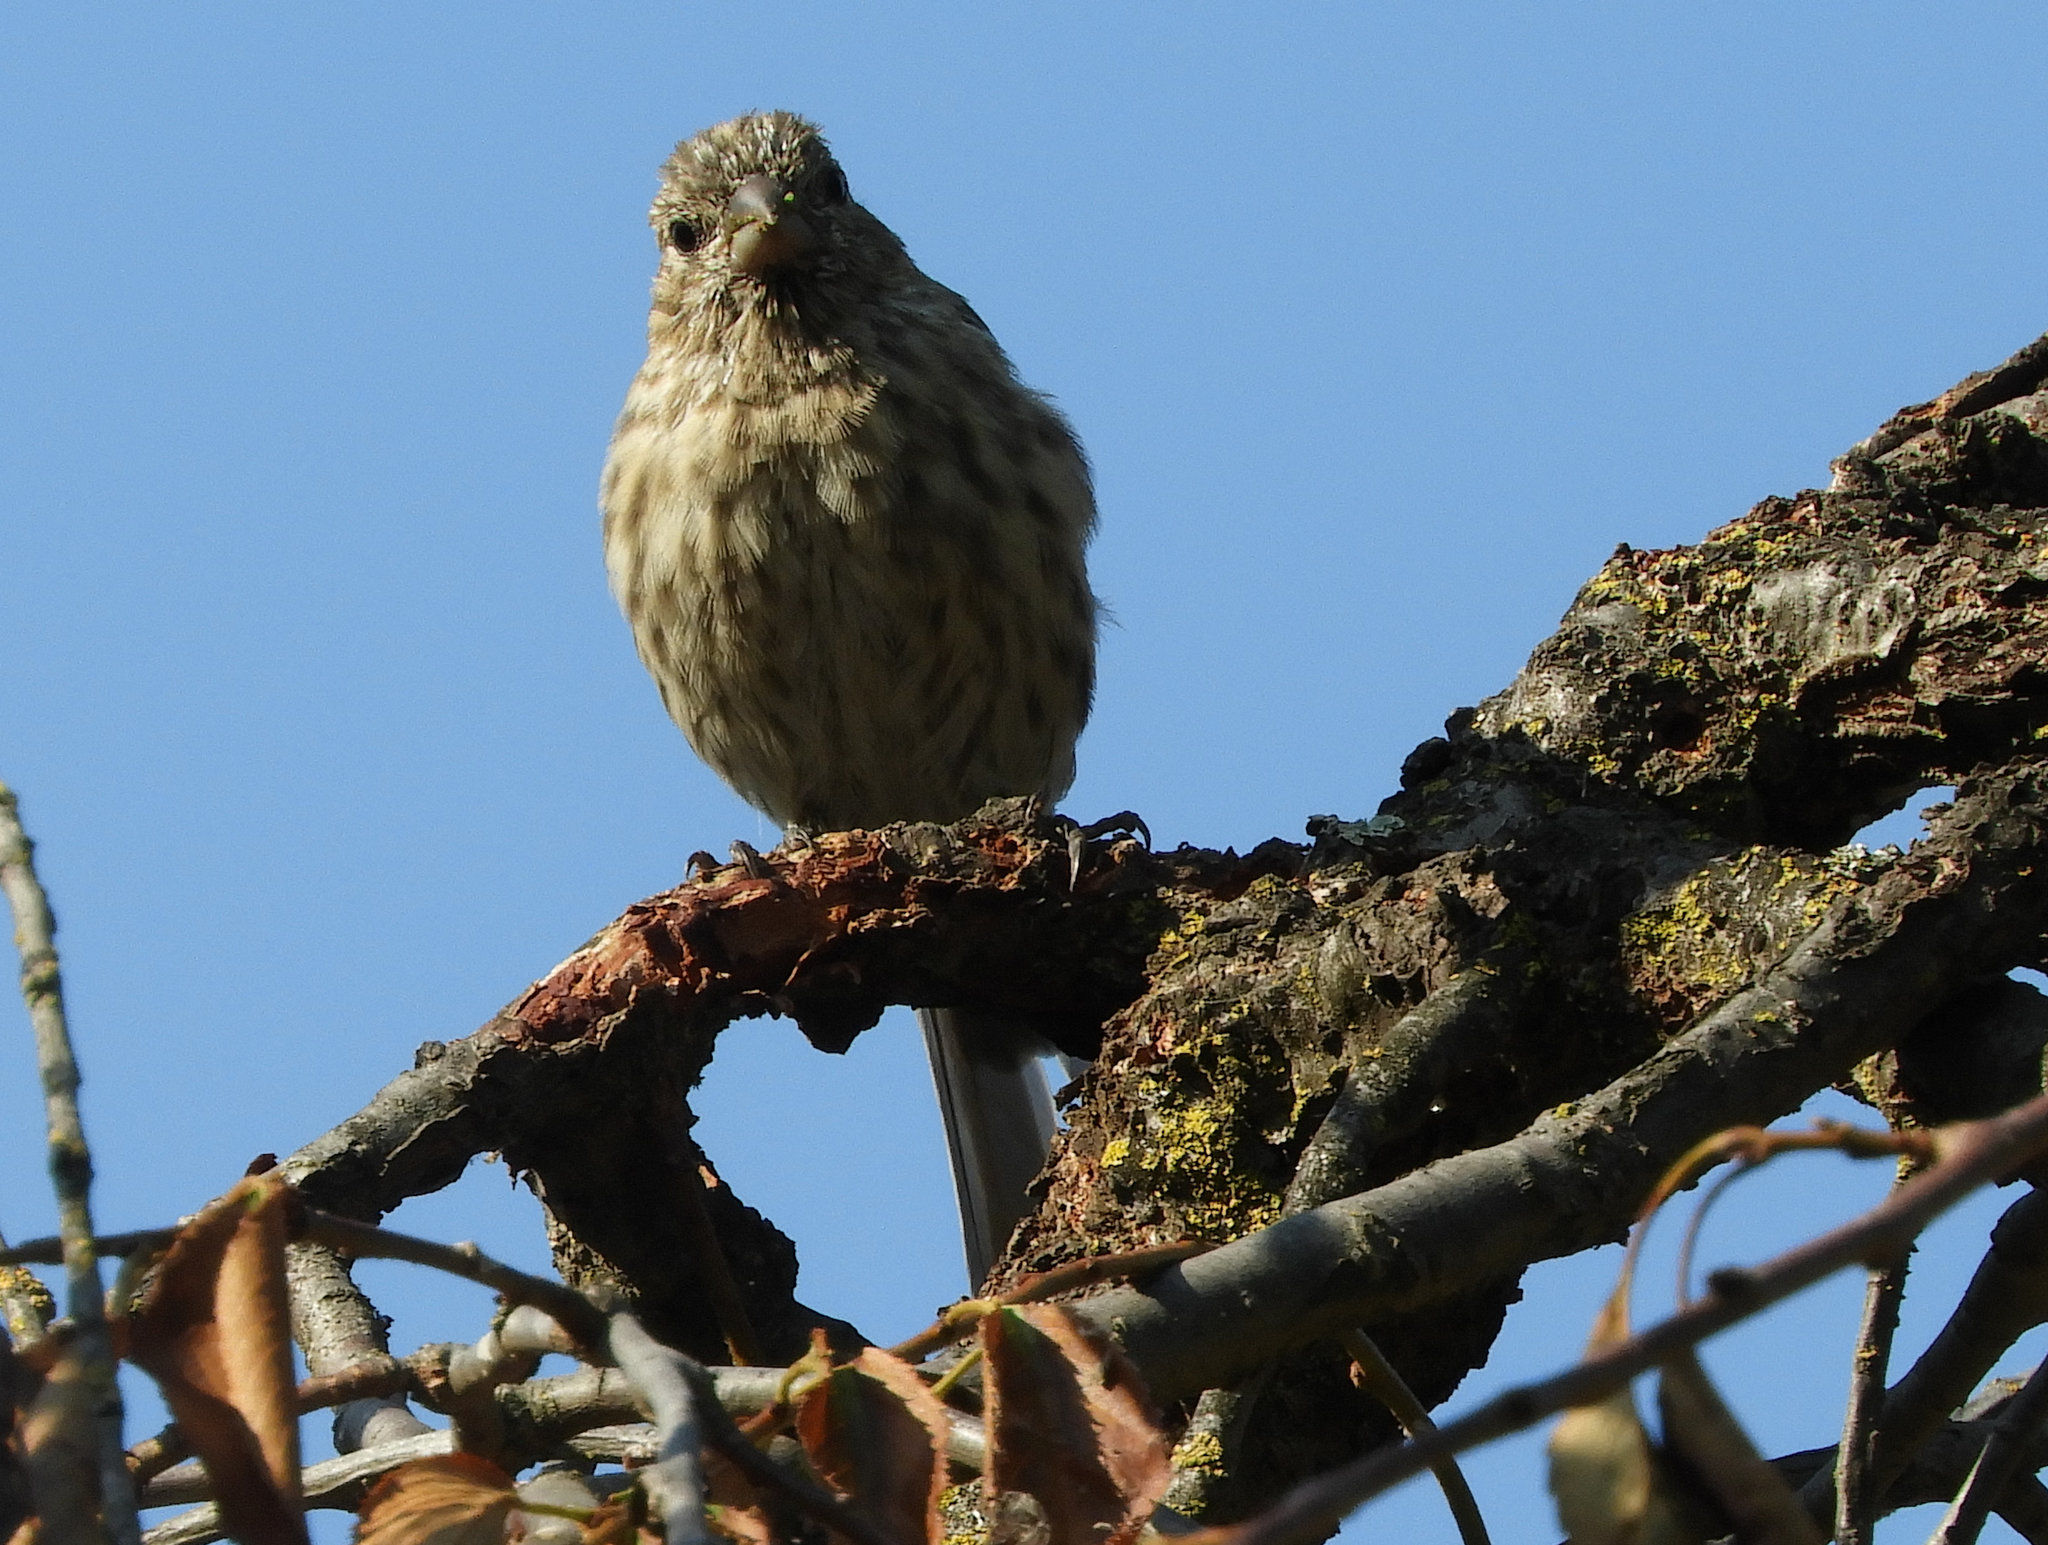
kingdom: Animalia
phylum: Chordata
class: Aves
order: Passeriformes
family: Fringillidae
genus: Haemorhous
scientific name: Haemorhous mexicanus
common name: House finch
